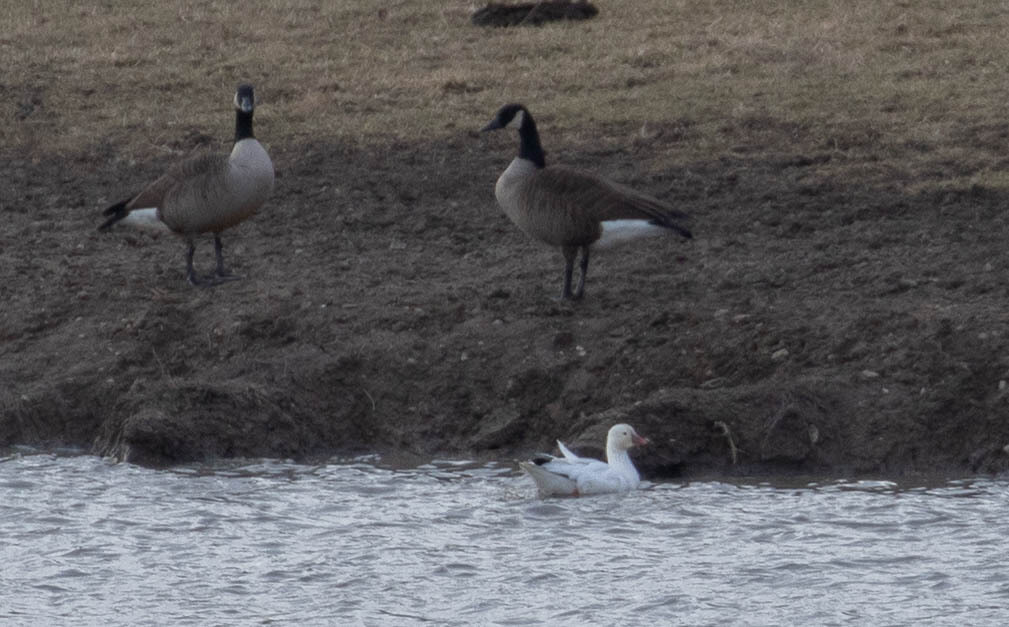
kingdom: Animalia
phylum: Chordata
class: Aves
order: Anseriformes
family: Anatidae
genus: Anser
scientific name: Anser rossii
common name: Ross's goose
